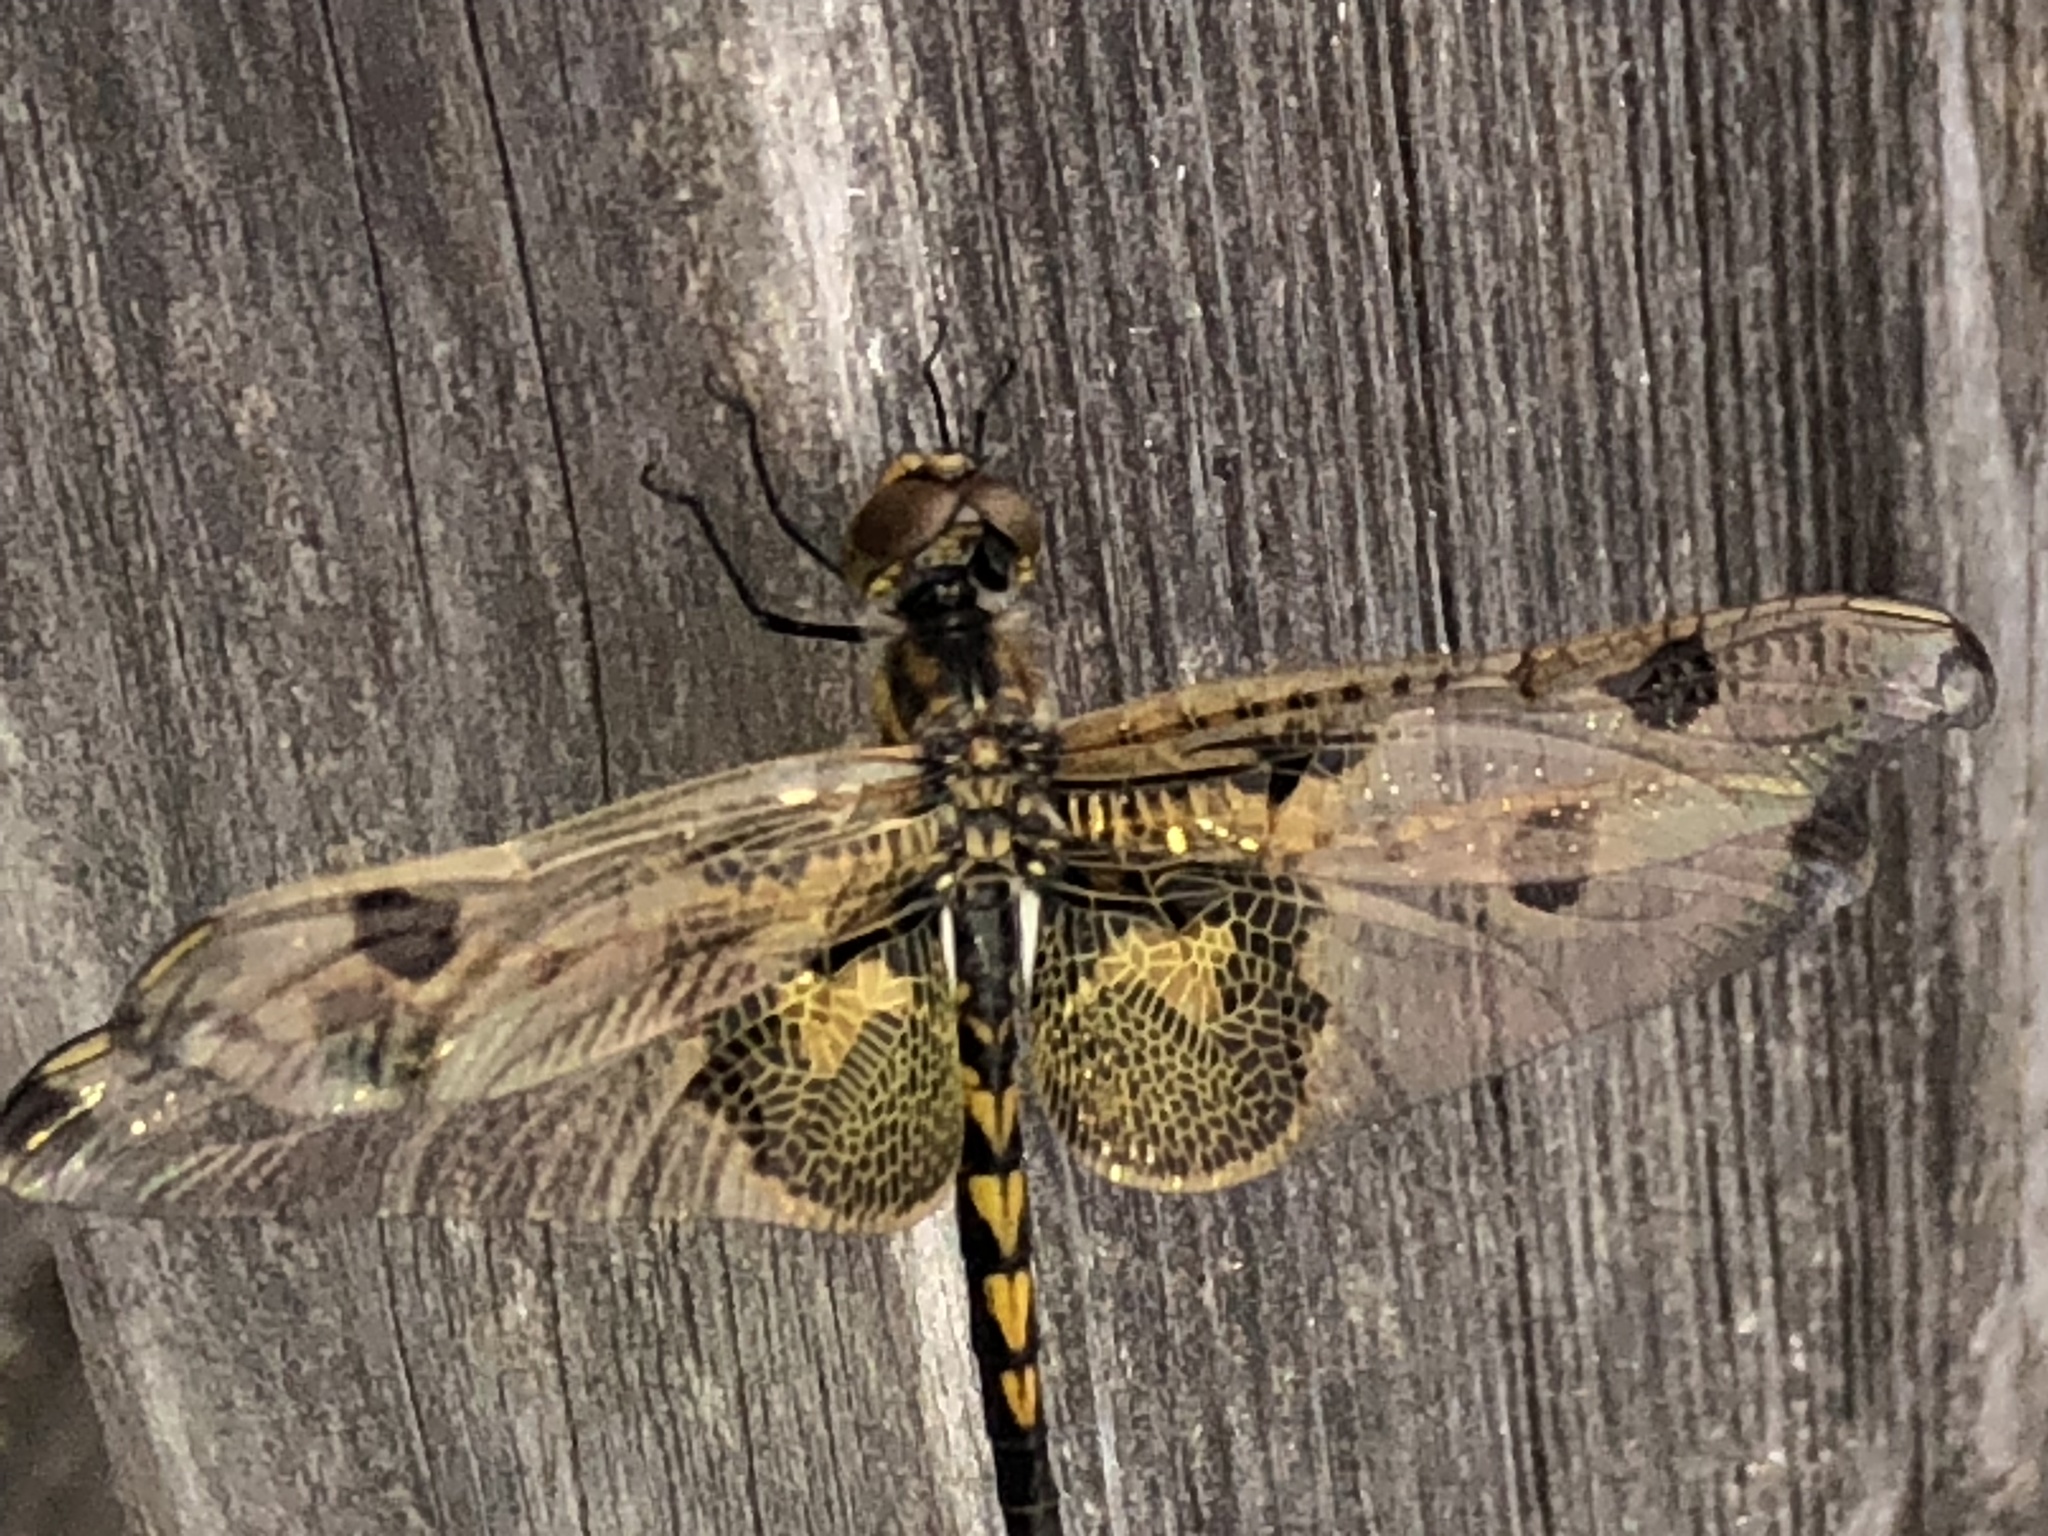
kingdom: Animalia
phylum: Arthropoda
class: Insecta
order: Odonata
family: Libellulidae
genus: Celithemis
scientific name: Celithemis elisa
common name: Calico pennant
